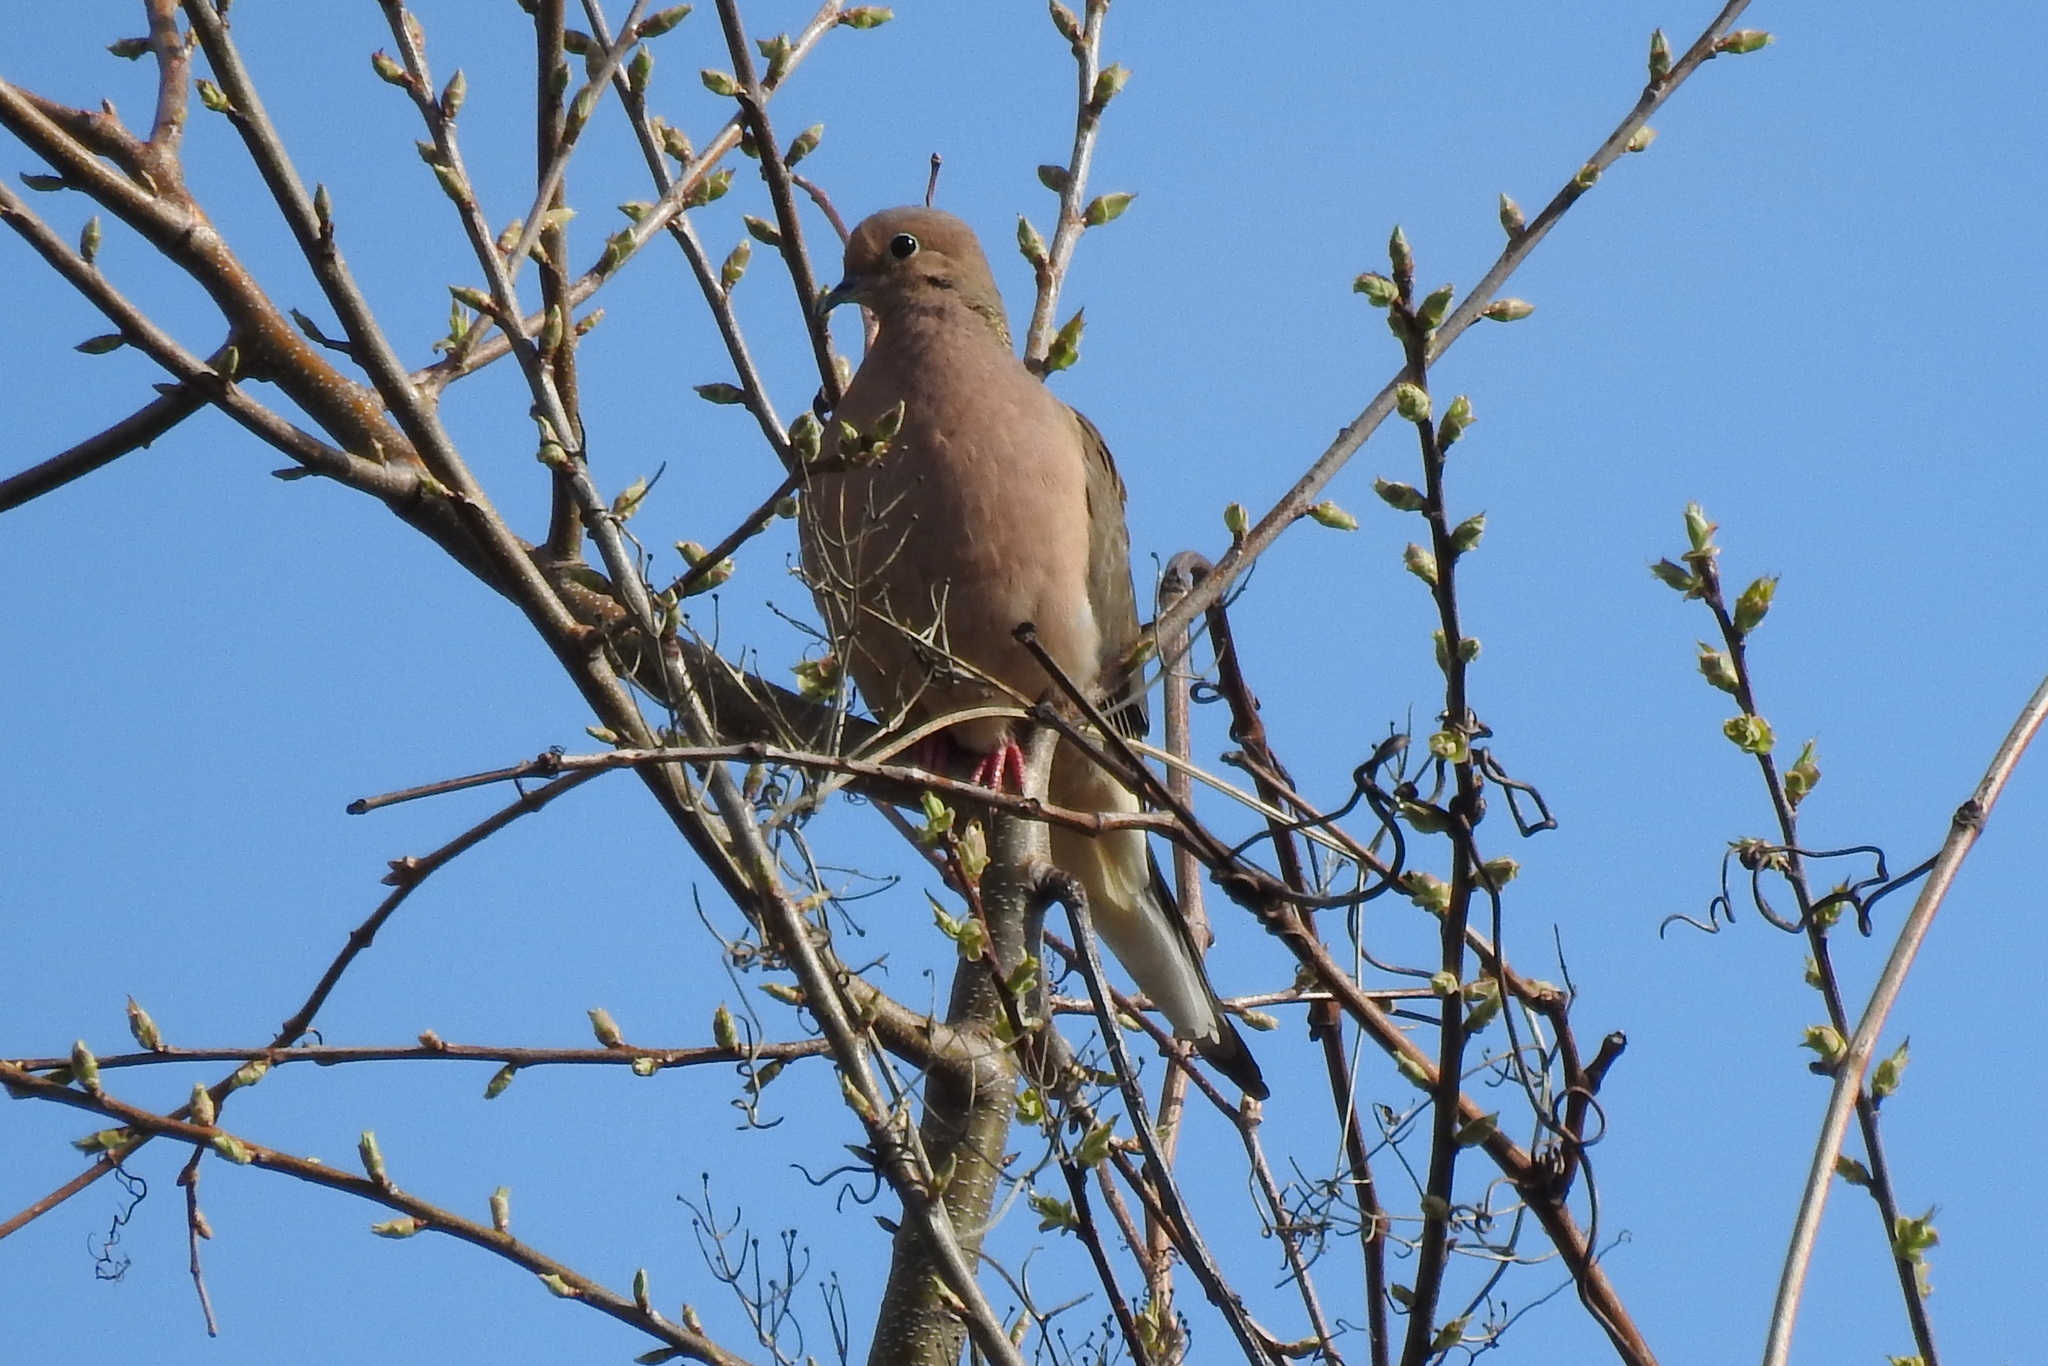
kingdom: Animalia
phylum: Chordata
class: Aves
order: Columbiformes
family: Columbidae
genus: Zenaida
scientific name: Zenaida macroura
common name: Mourning dove
